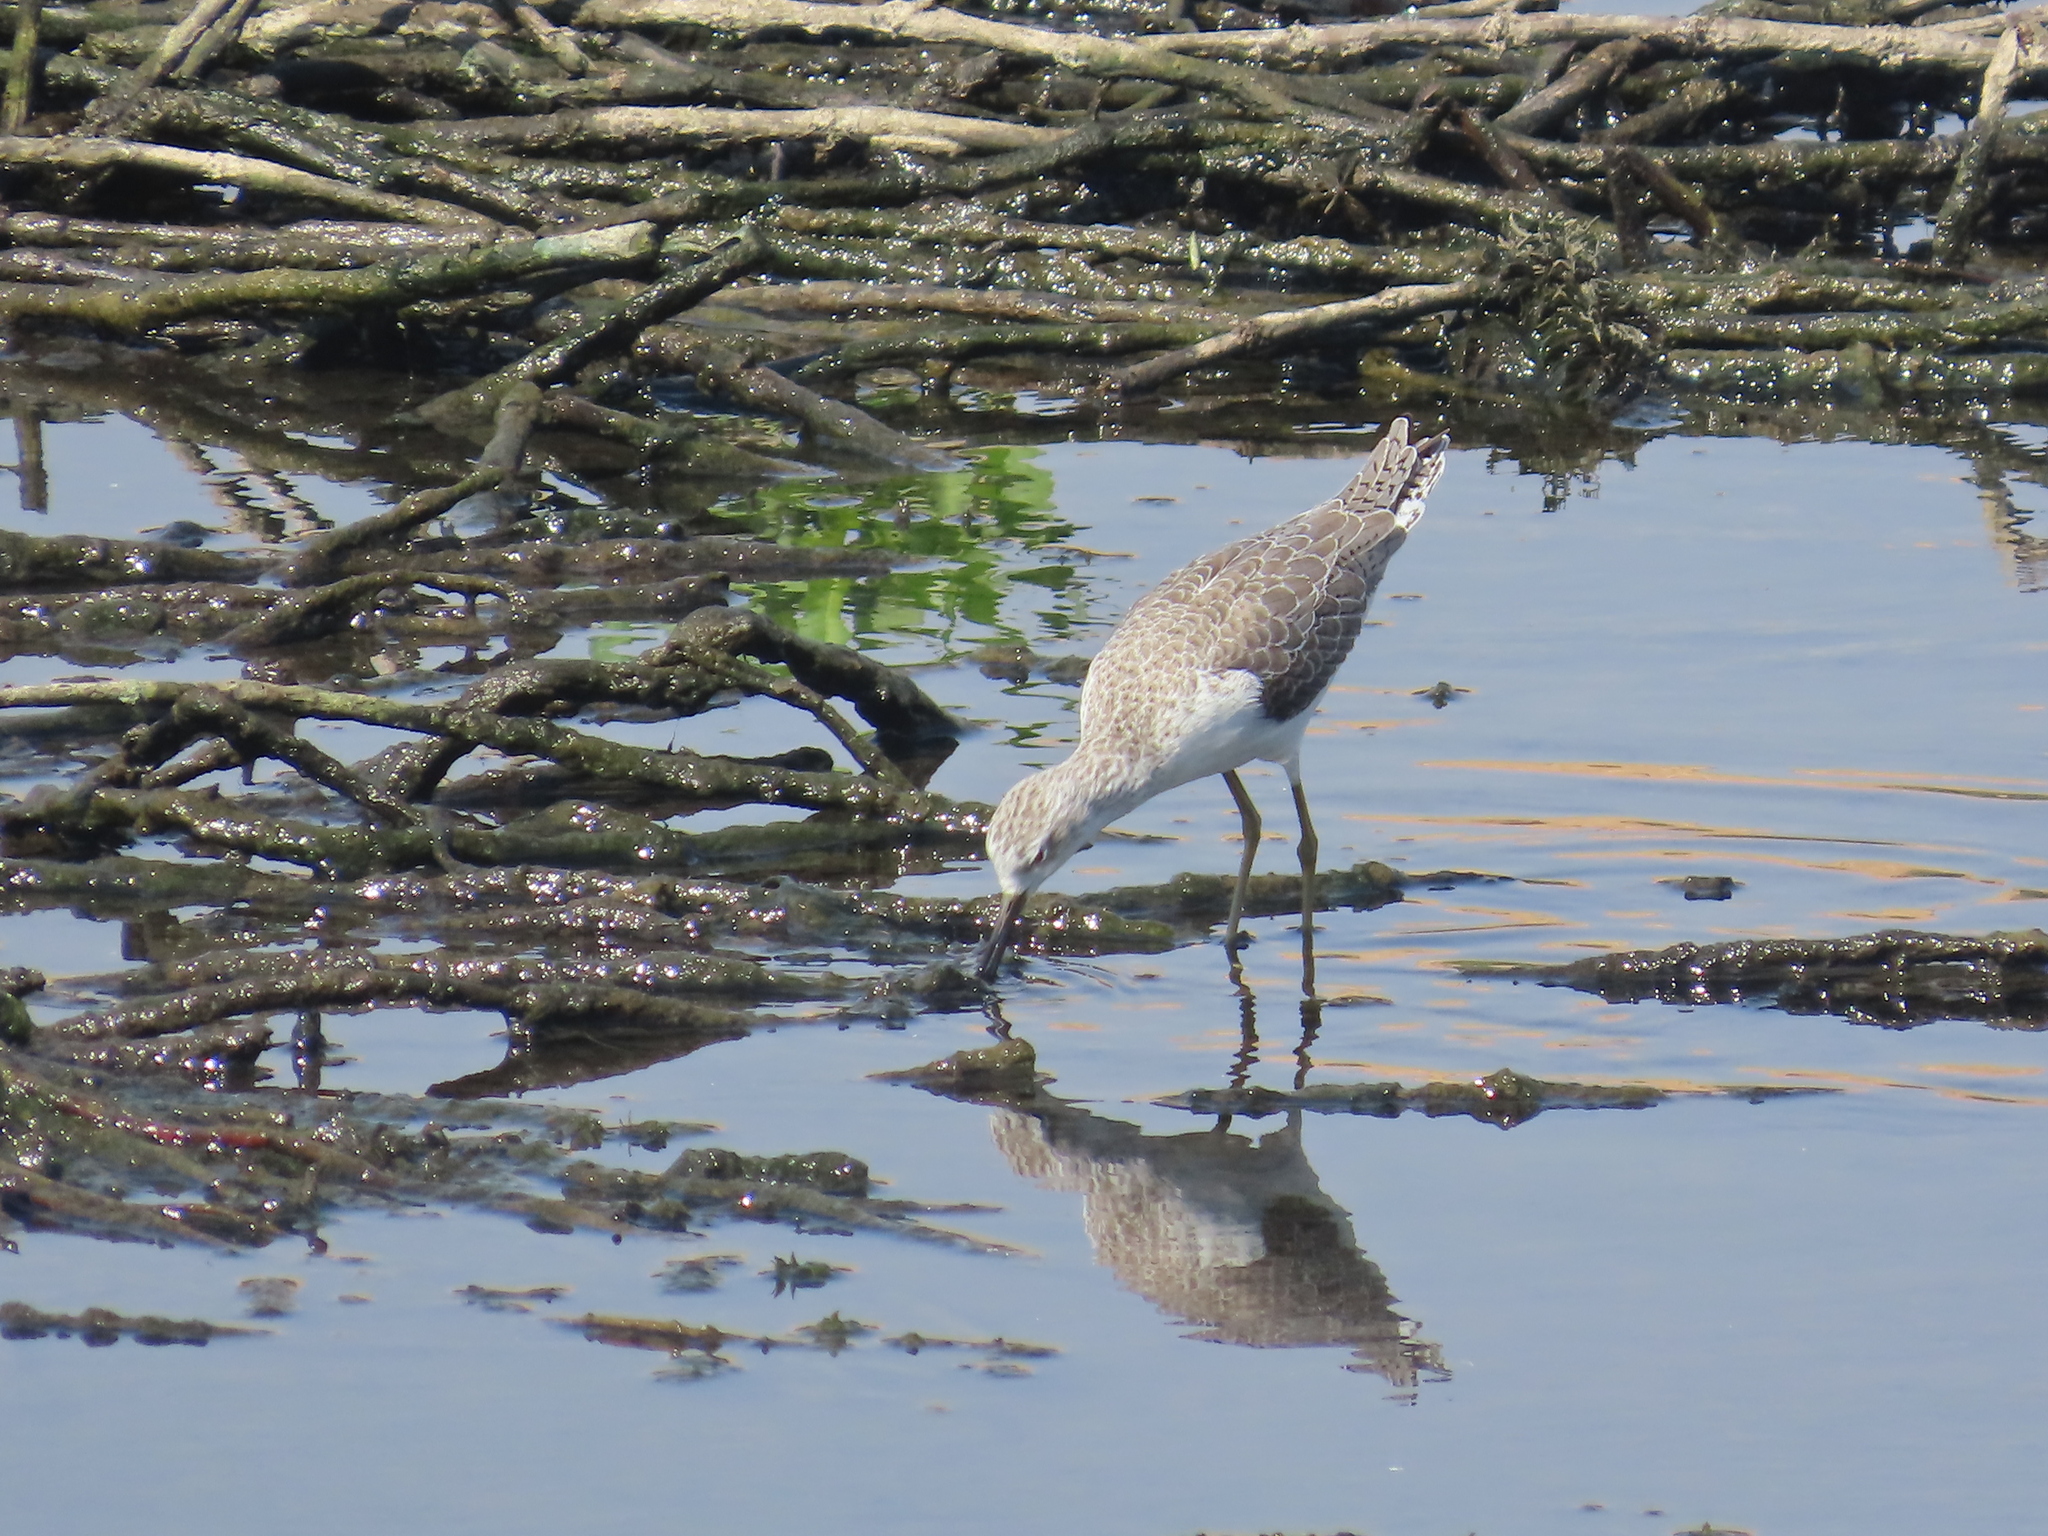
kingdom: Animalia
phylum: Chordata
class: Aves
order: Charadriiformes
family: Scolopacidae
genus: Tringa
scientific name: Tringa stagnatilis
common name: Marsh sandpiper
